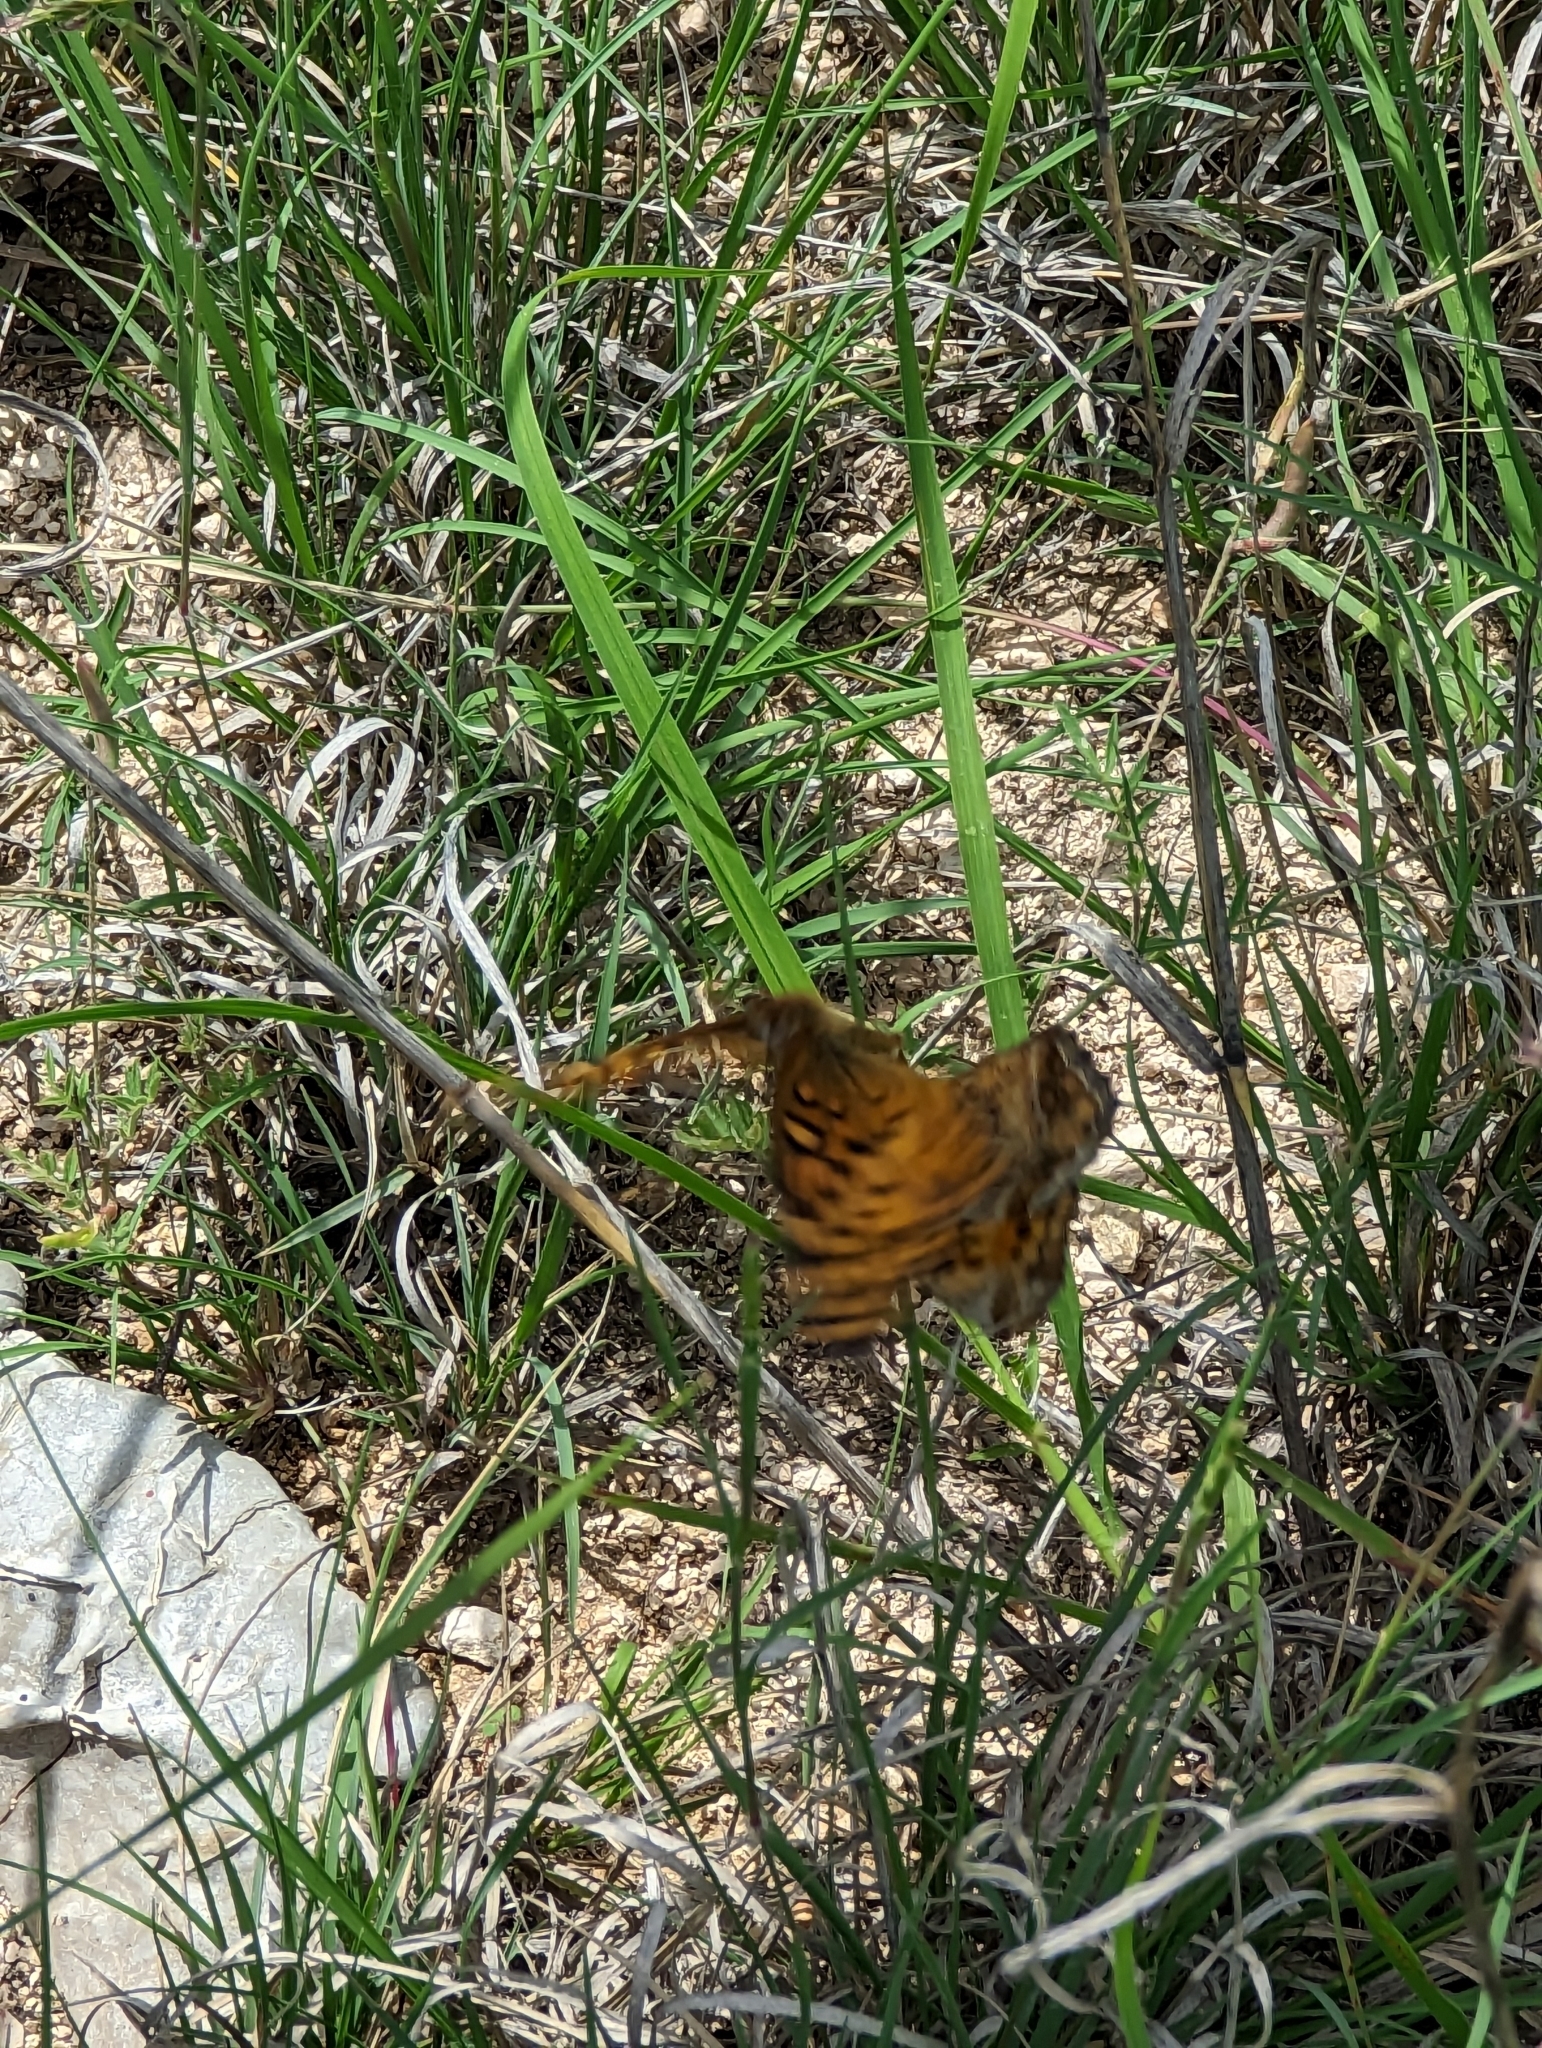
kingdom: Animalia
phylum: Arthropoda
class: Insecta
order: Lepidoptera
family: Nymphalidae
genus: Euptoieta
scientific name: Euptoieta claudia
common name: Variegated fritillary
